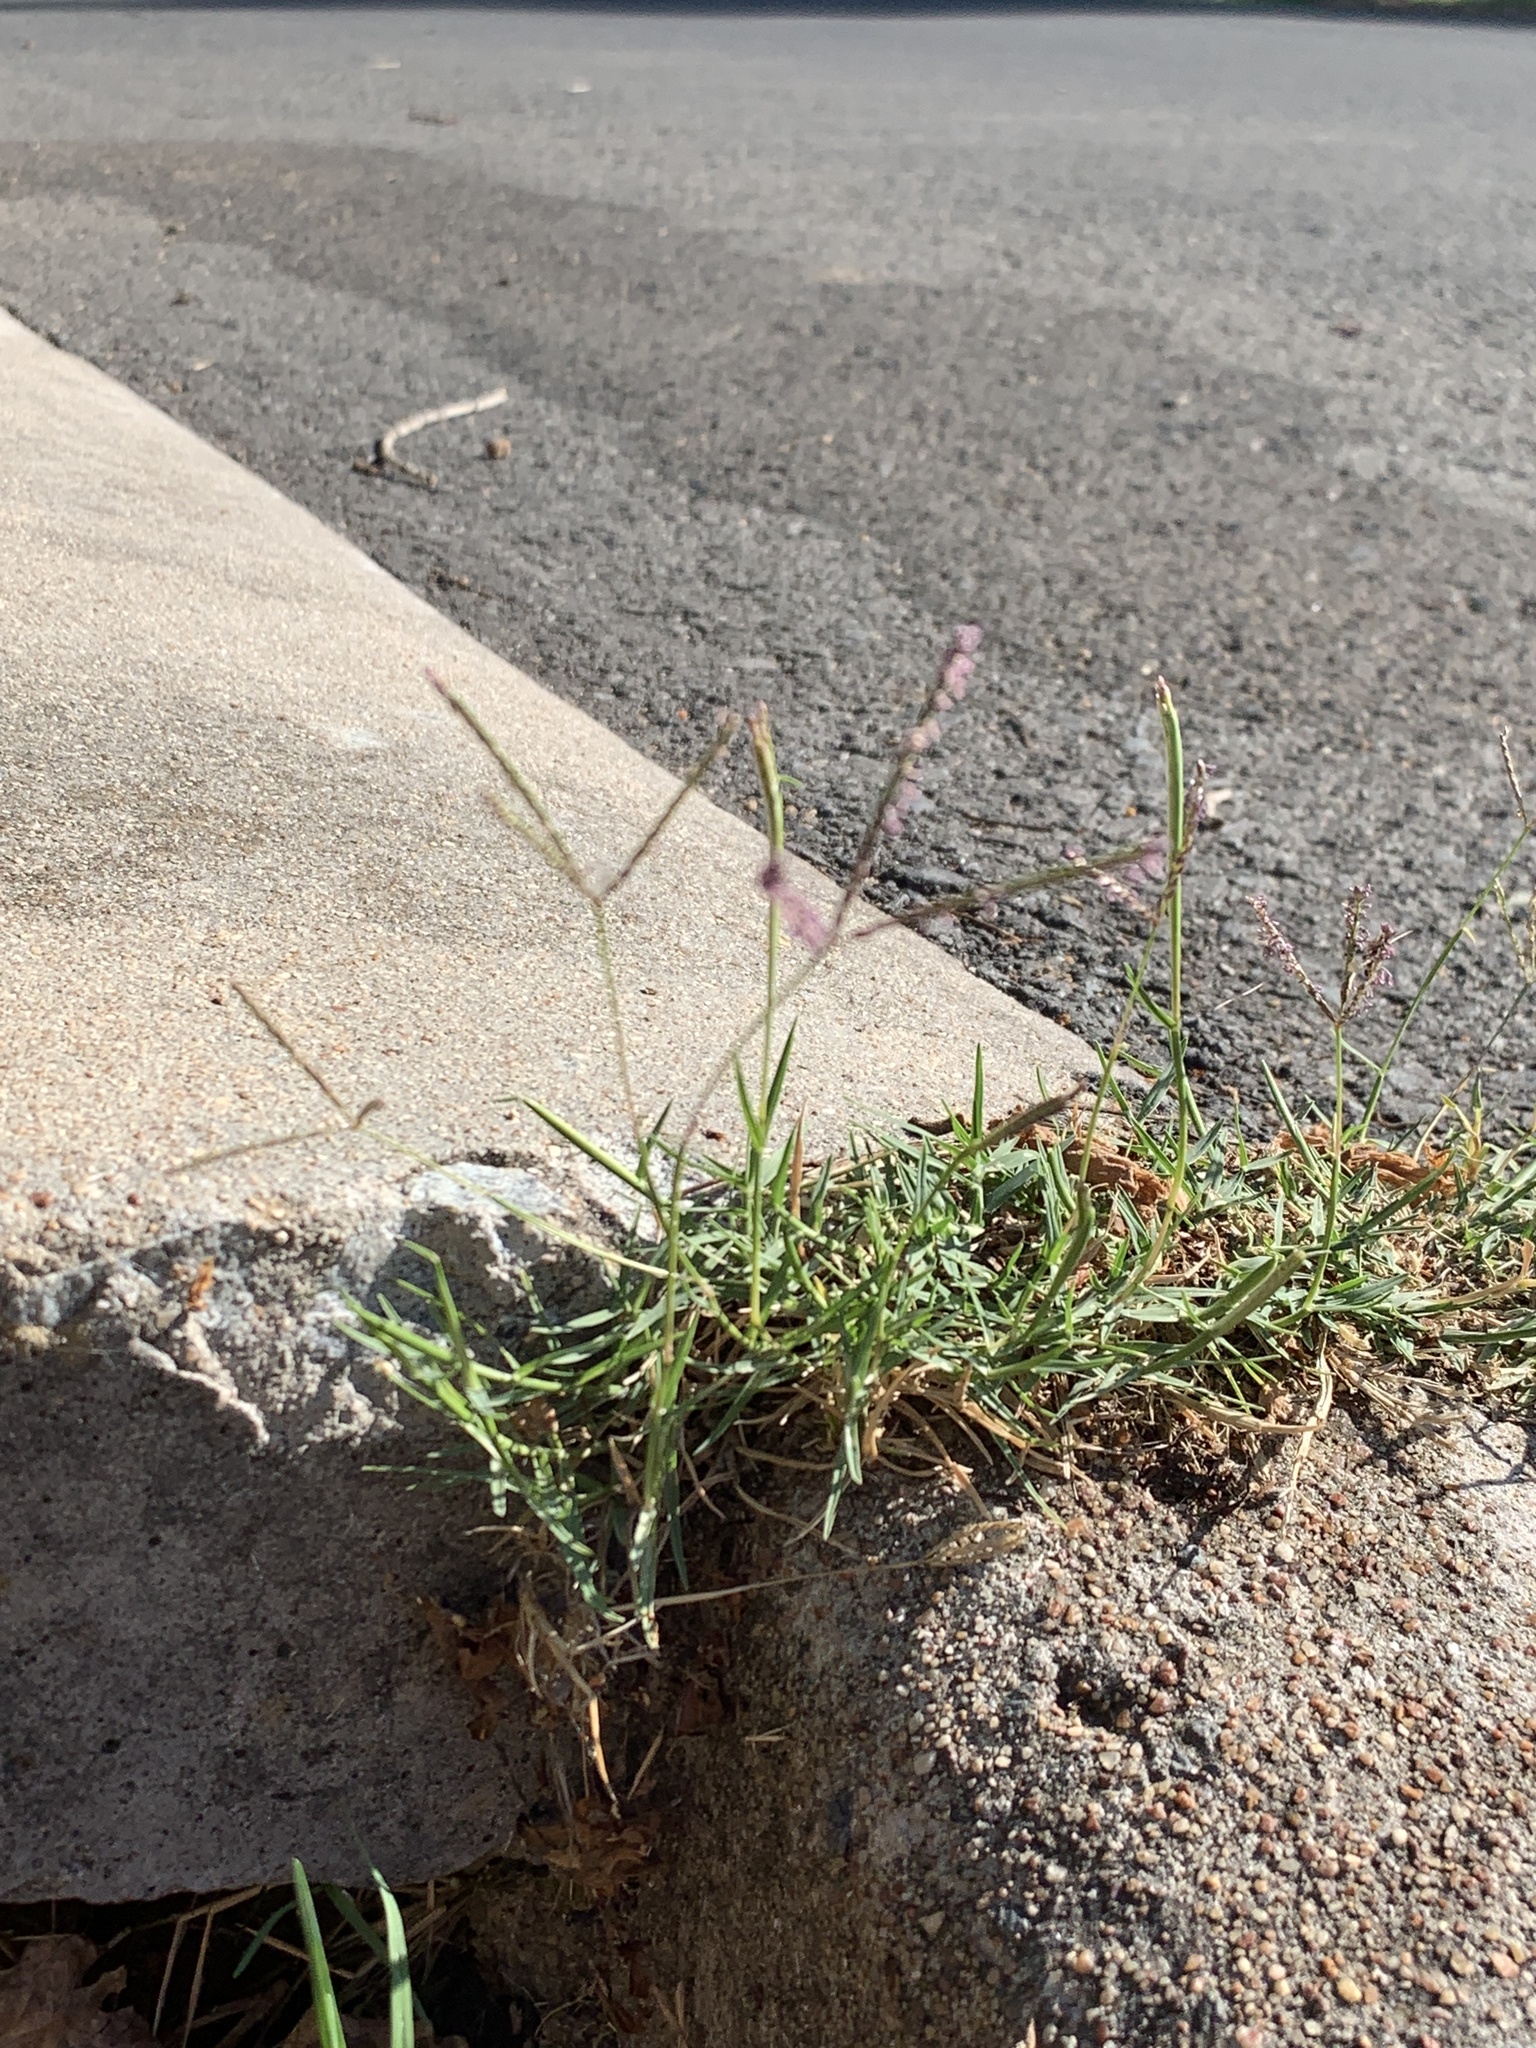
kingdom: Plantae
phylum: Tracheophyta
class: Liliopsida
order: Poales
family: Poaceae
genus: Cynodon
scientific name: Cynodon dactylon
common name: Bermuda grass
